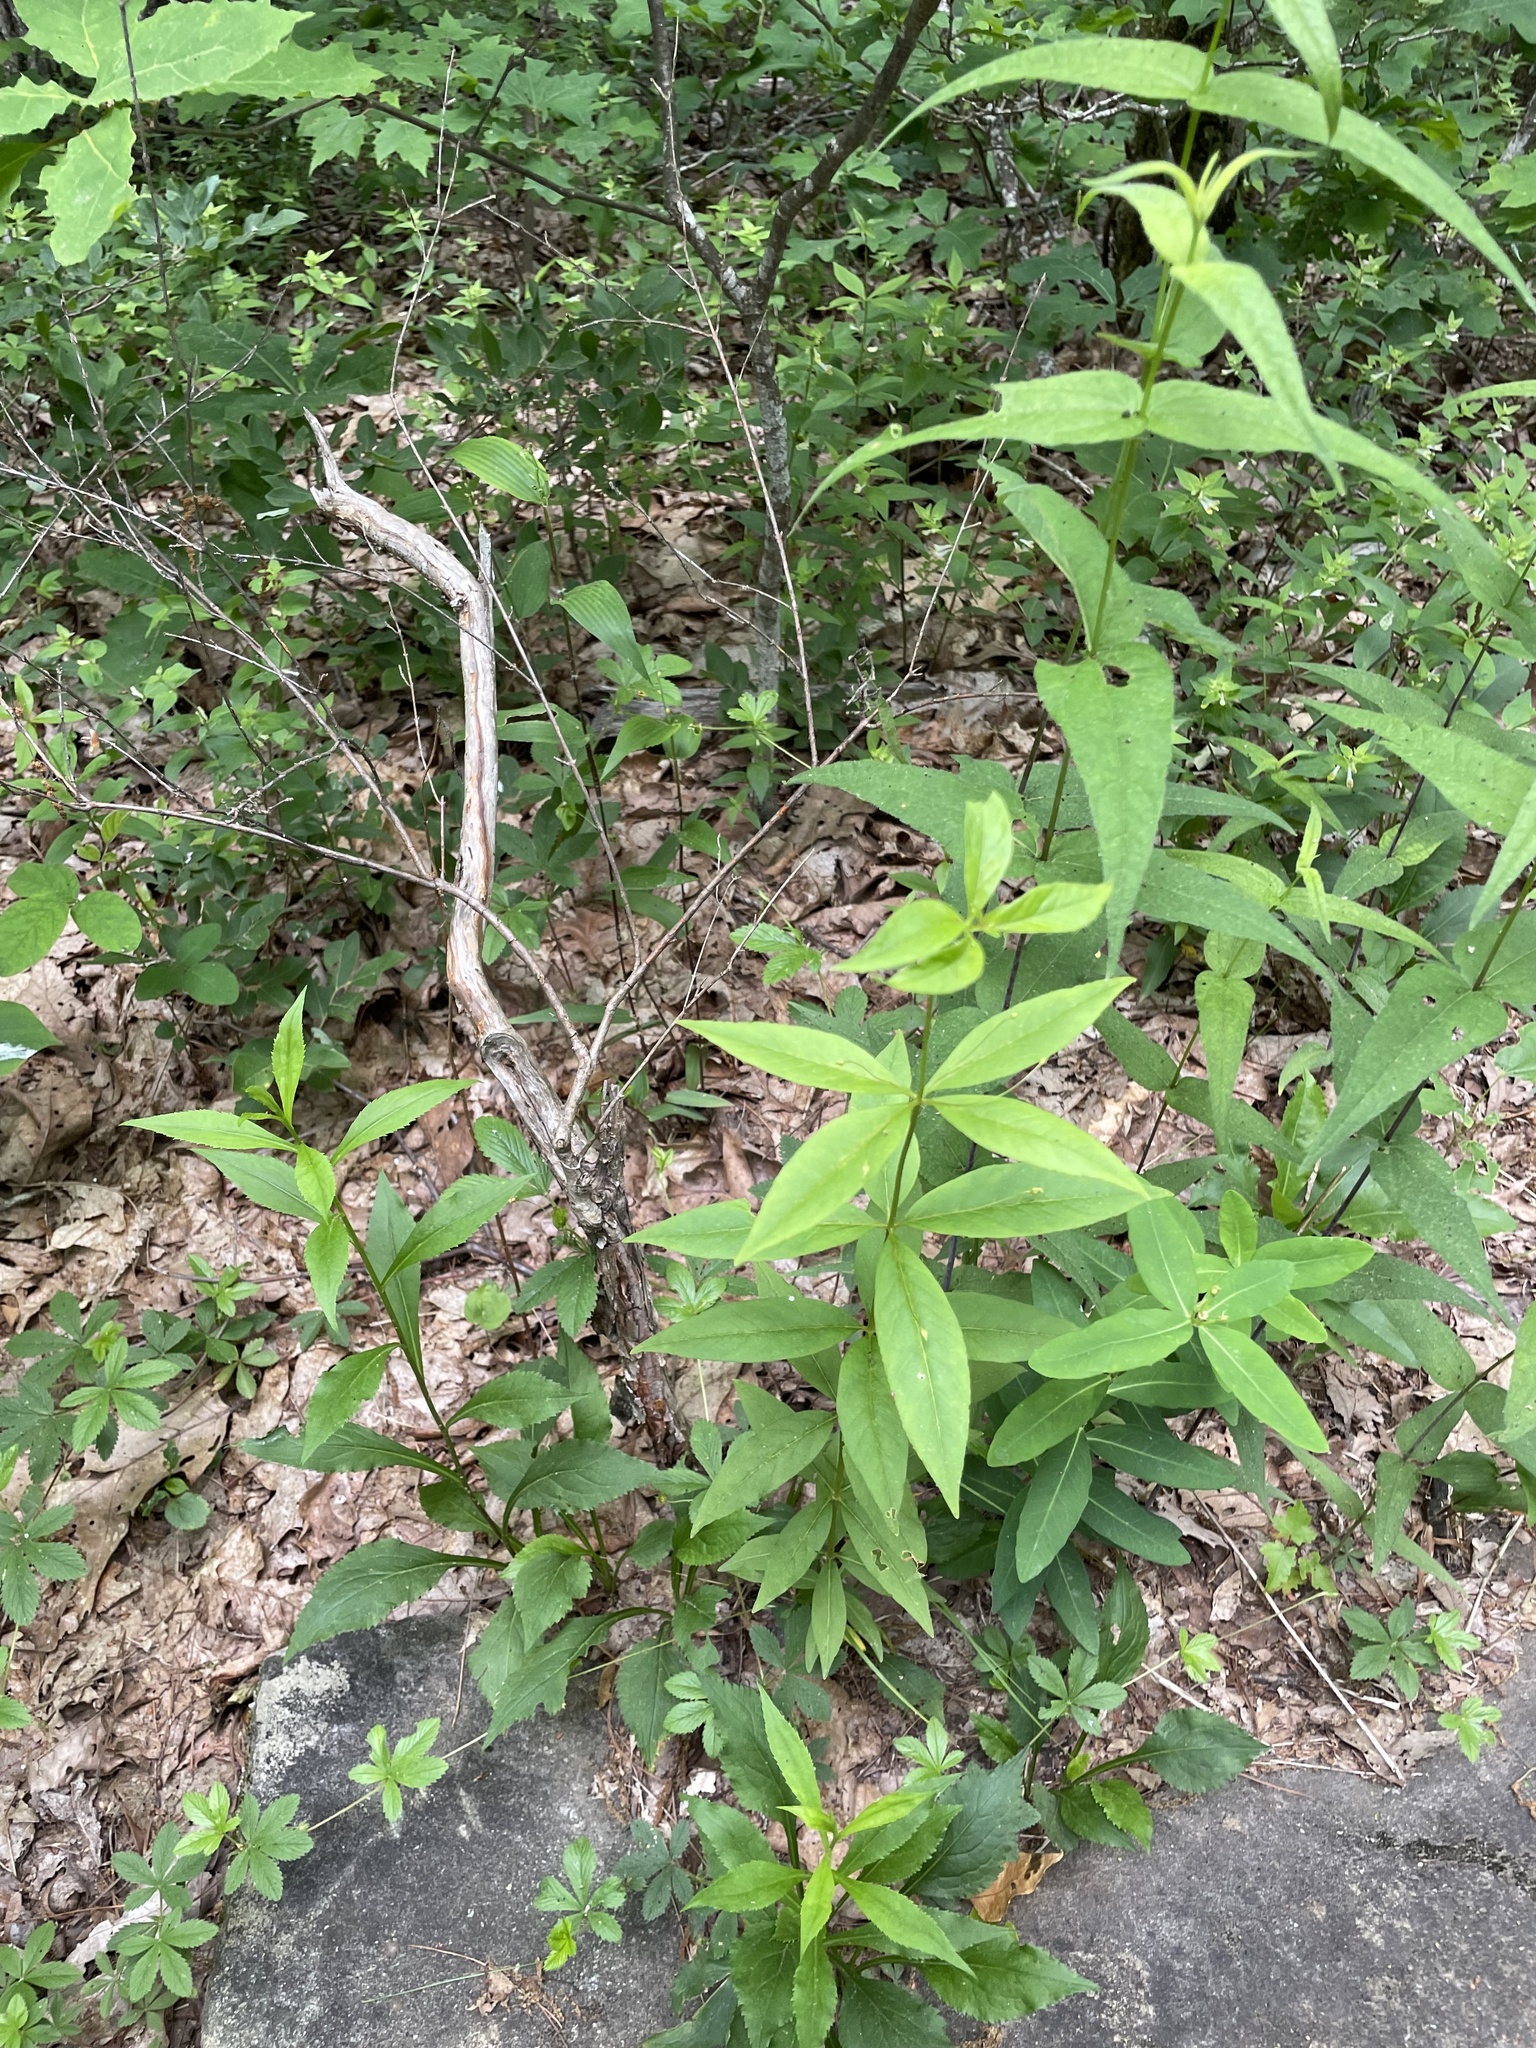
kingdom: Plantae
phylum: Tracheophyta
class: Magnoliopsida
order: Ericales
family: Primulaceae
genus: Lysimachia
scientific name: Lysimachia quadrifolia
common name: Whorled loosestrife
